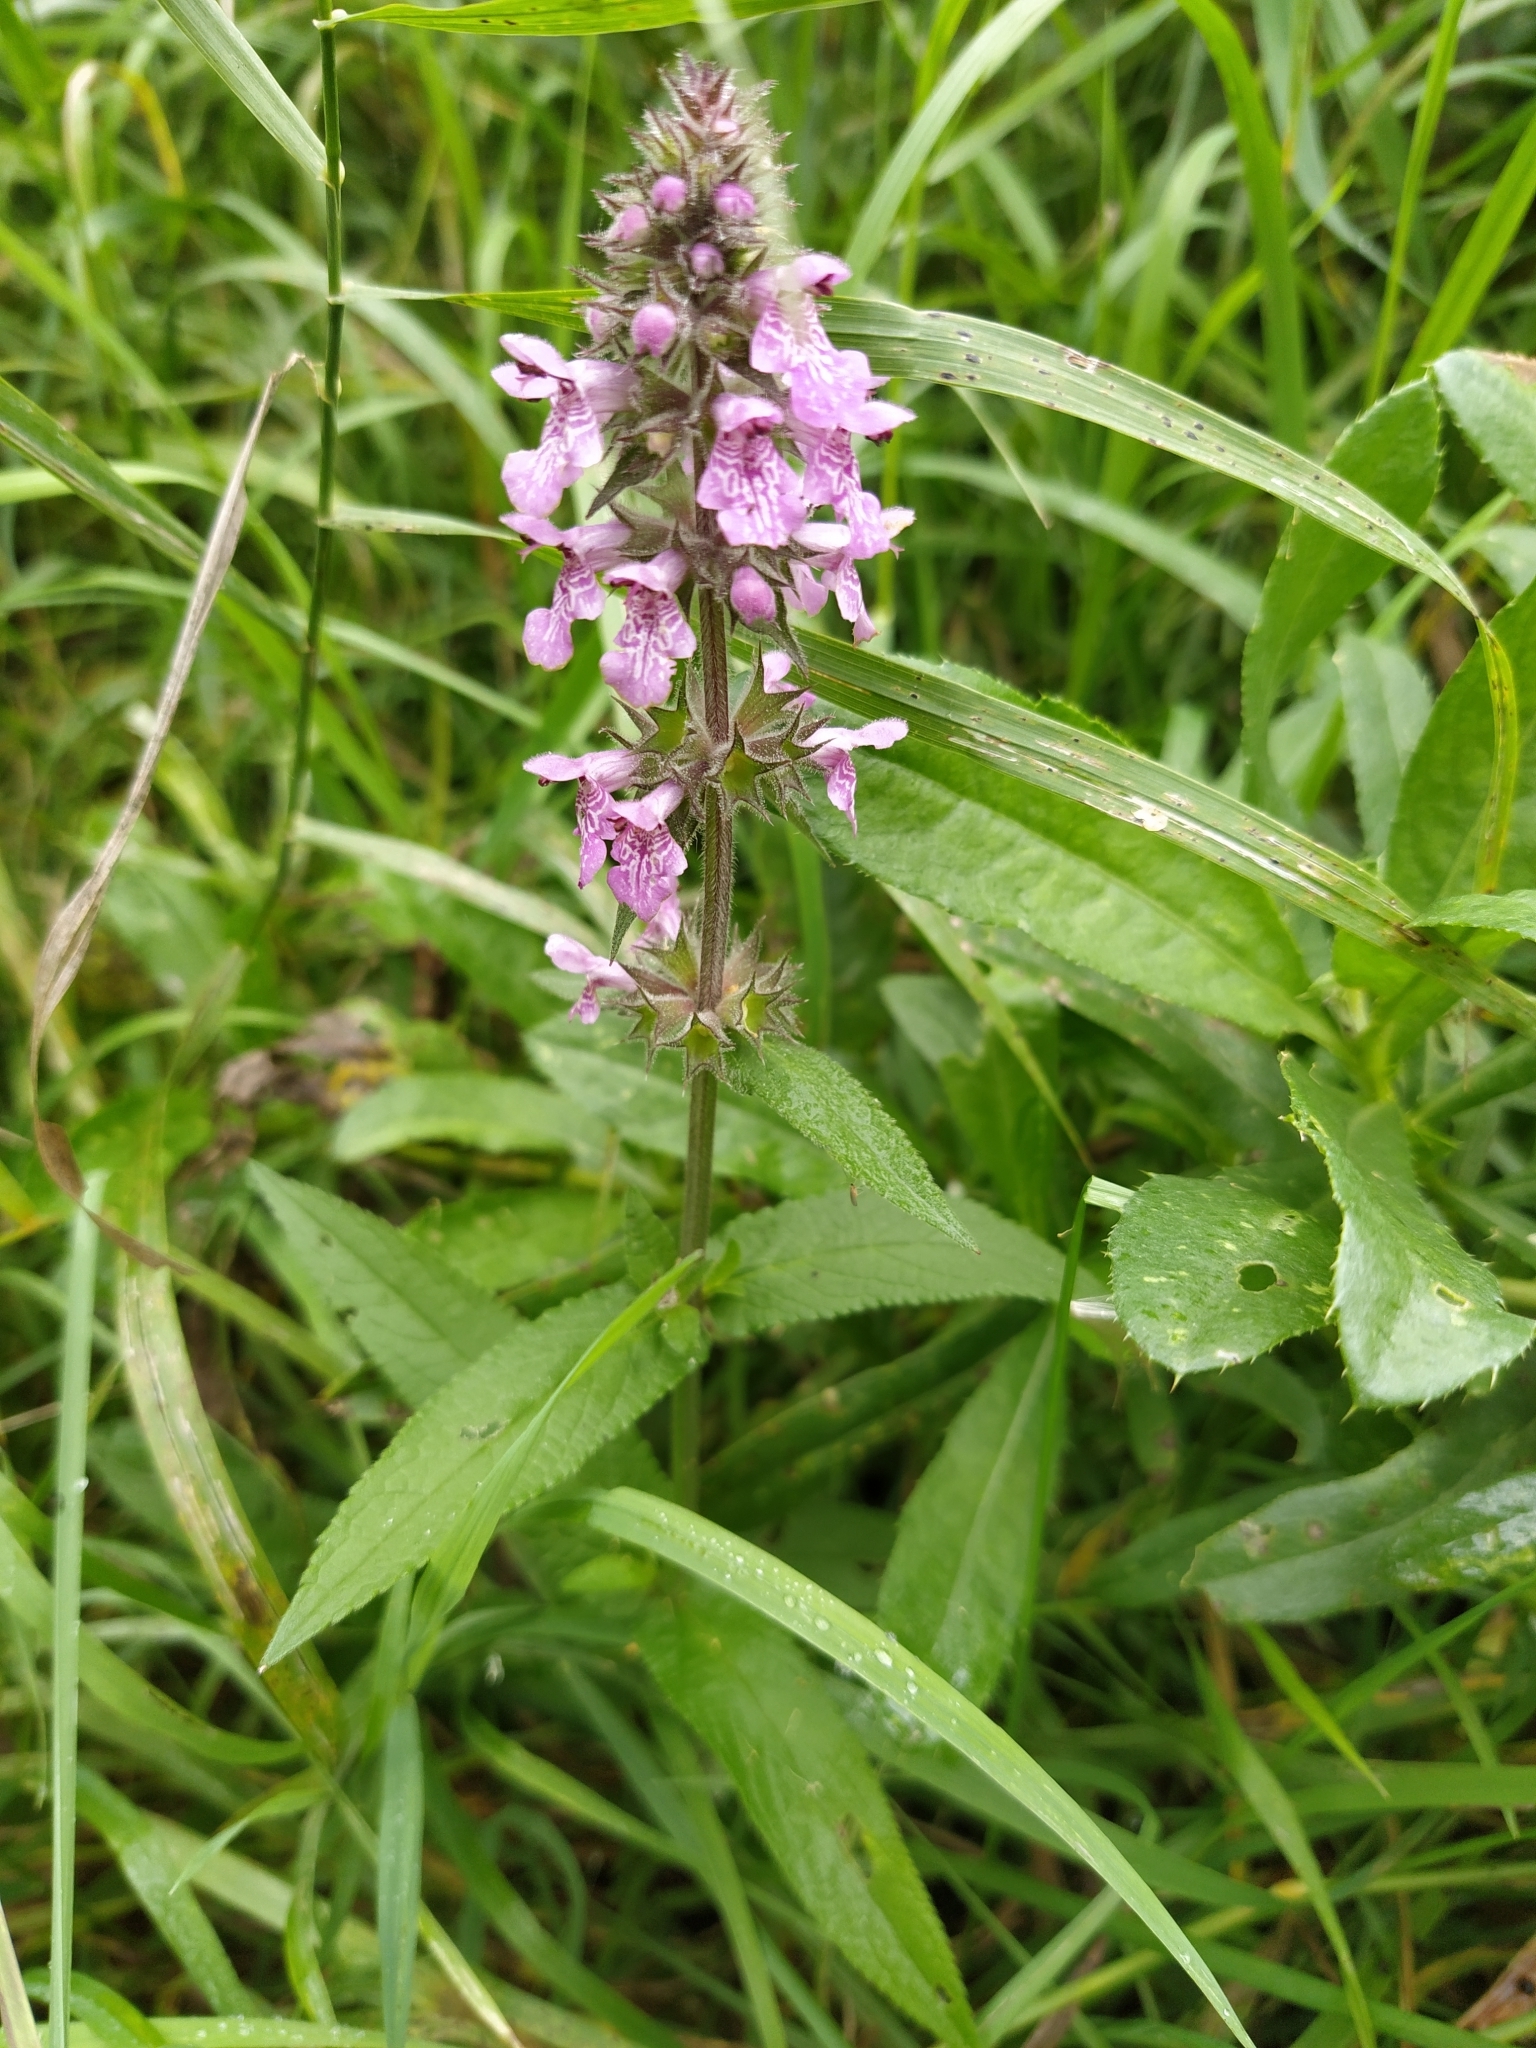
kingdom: Plantae
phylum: Tracheophyta
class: Magnoliopsida
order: Lamiales
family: Lamiaceae
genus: Stachys
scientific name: Stachys palustris
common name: Marsh woundwort
